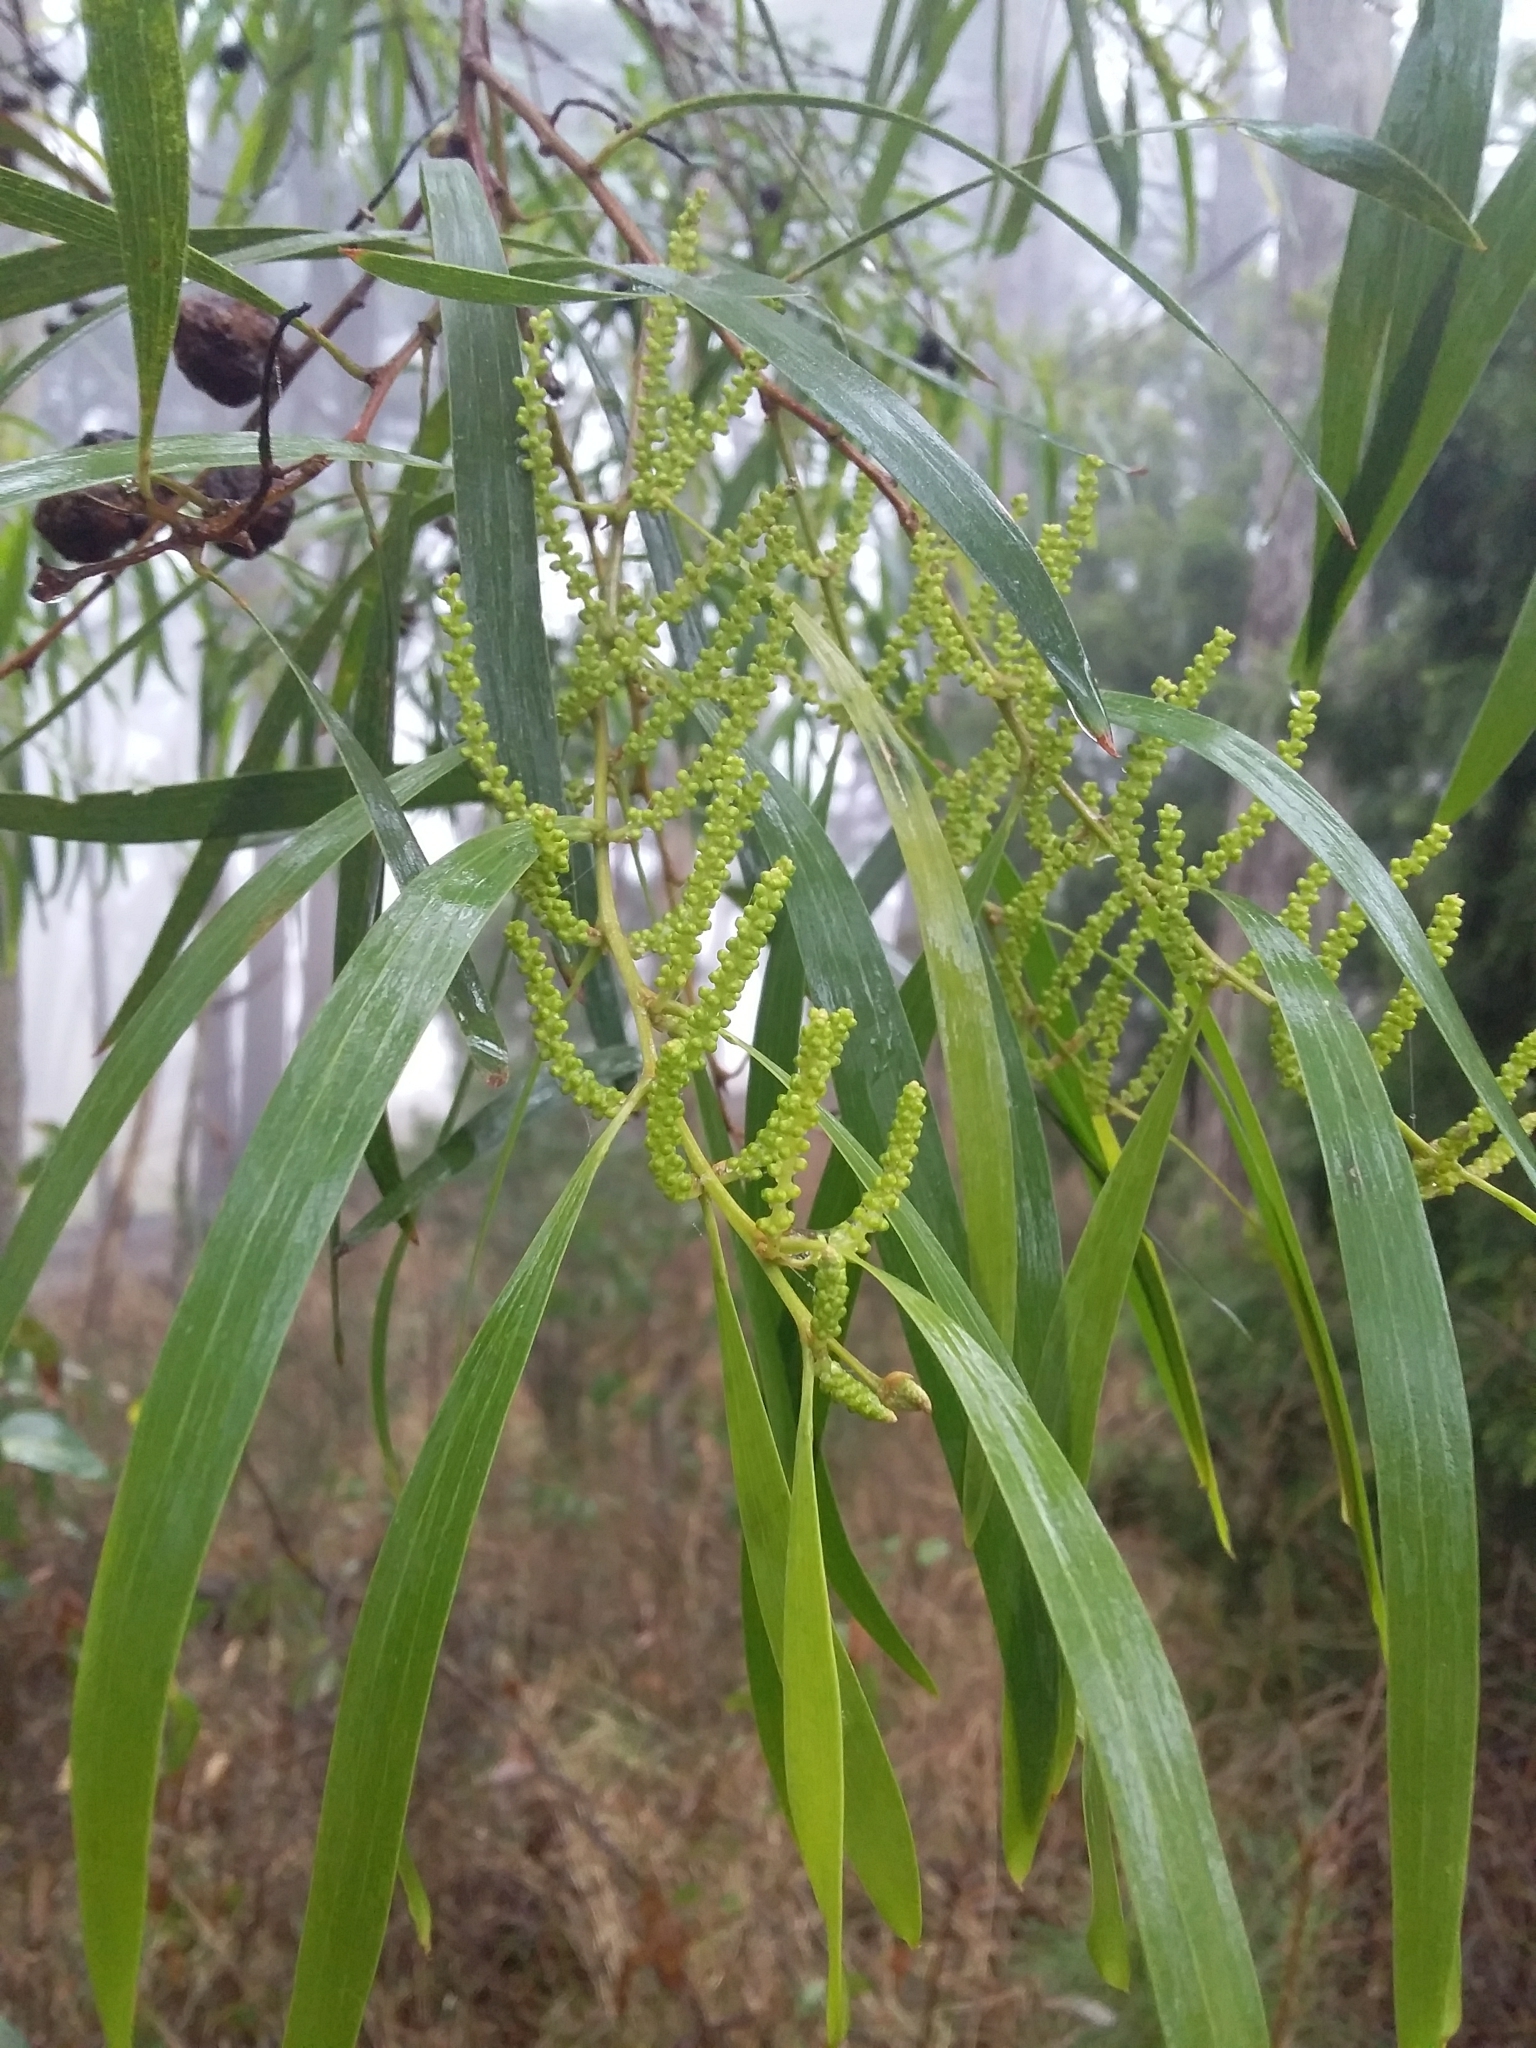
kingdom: Plantae
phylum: Tracheophyta
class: Magnoliopsida
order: Fabales
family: Fabaceae
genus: Acacia
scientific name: Acacia longifolia
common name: Sydney golden wattle
